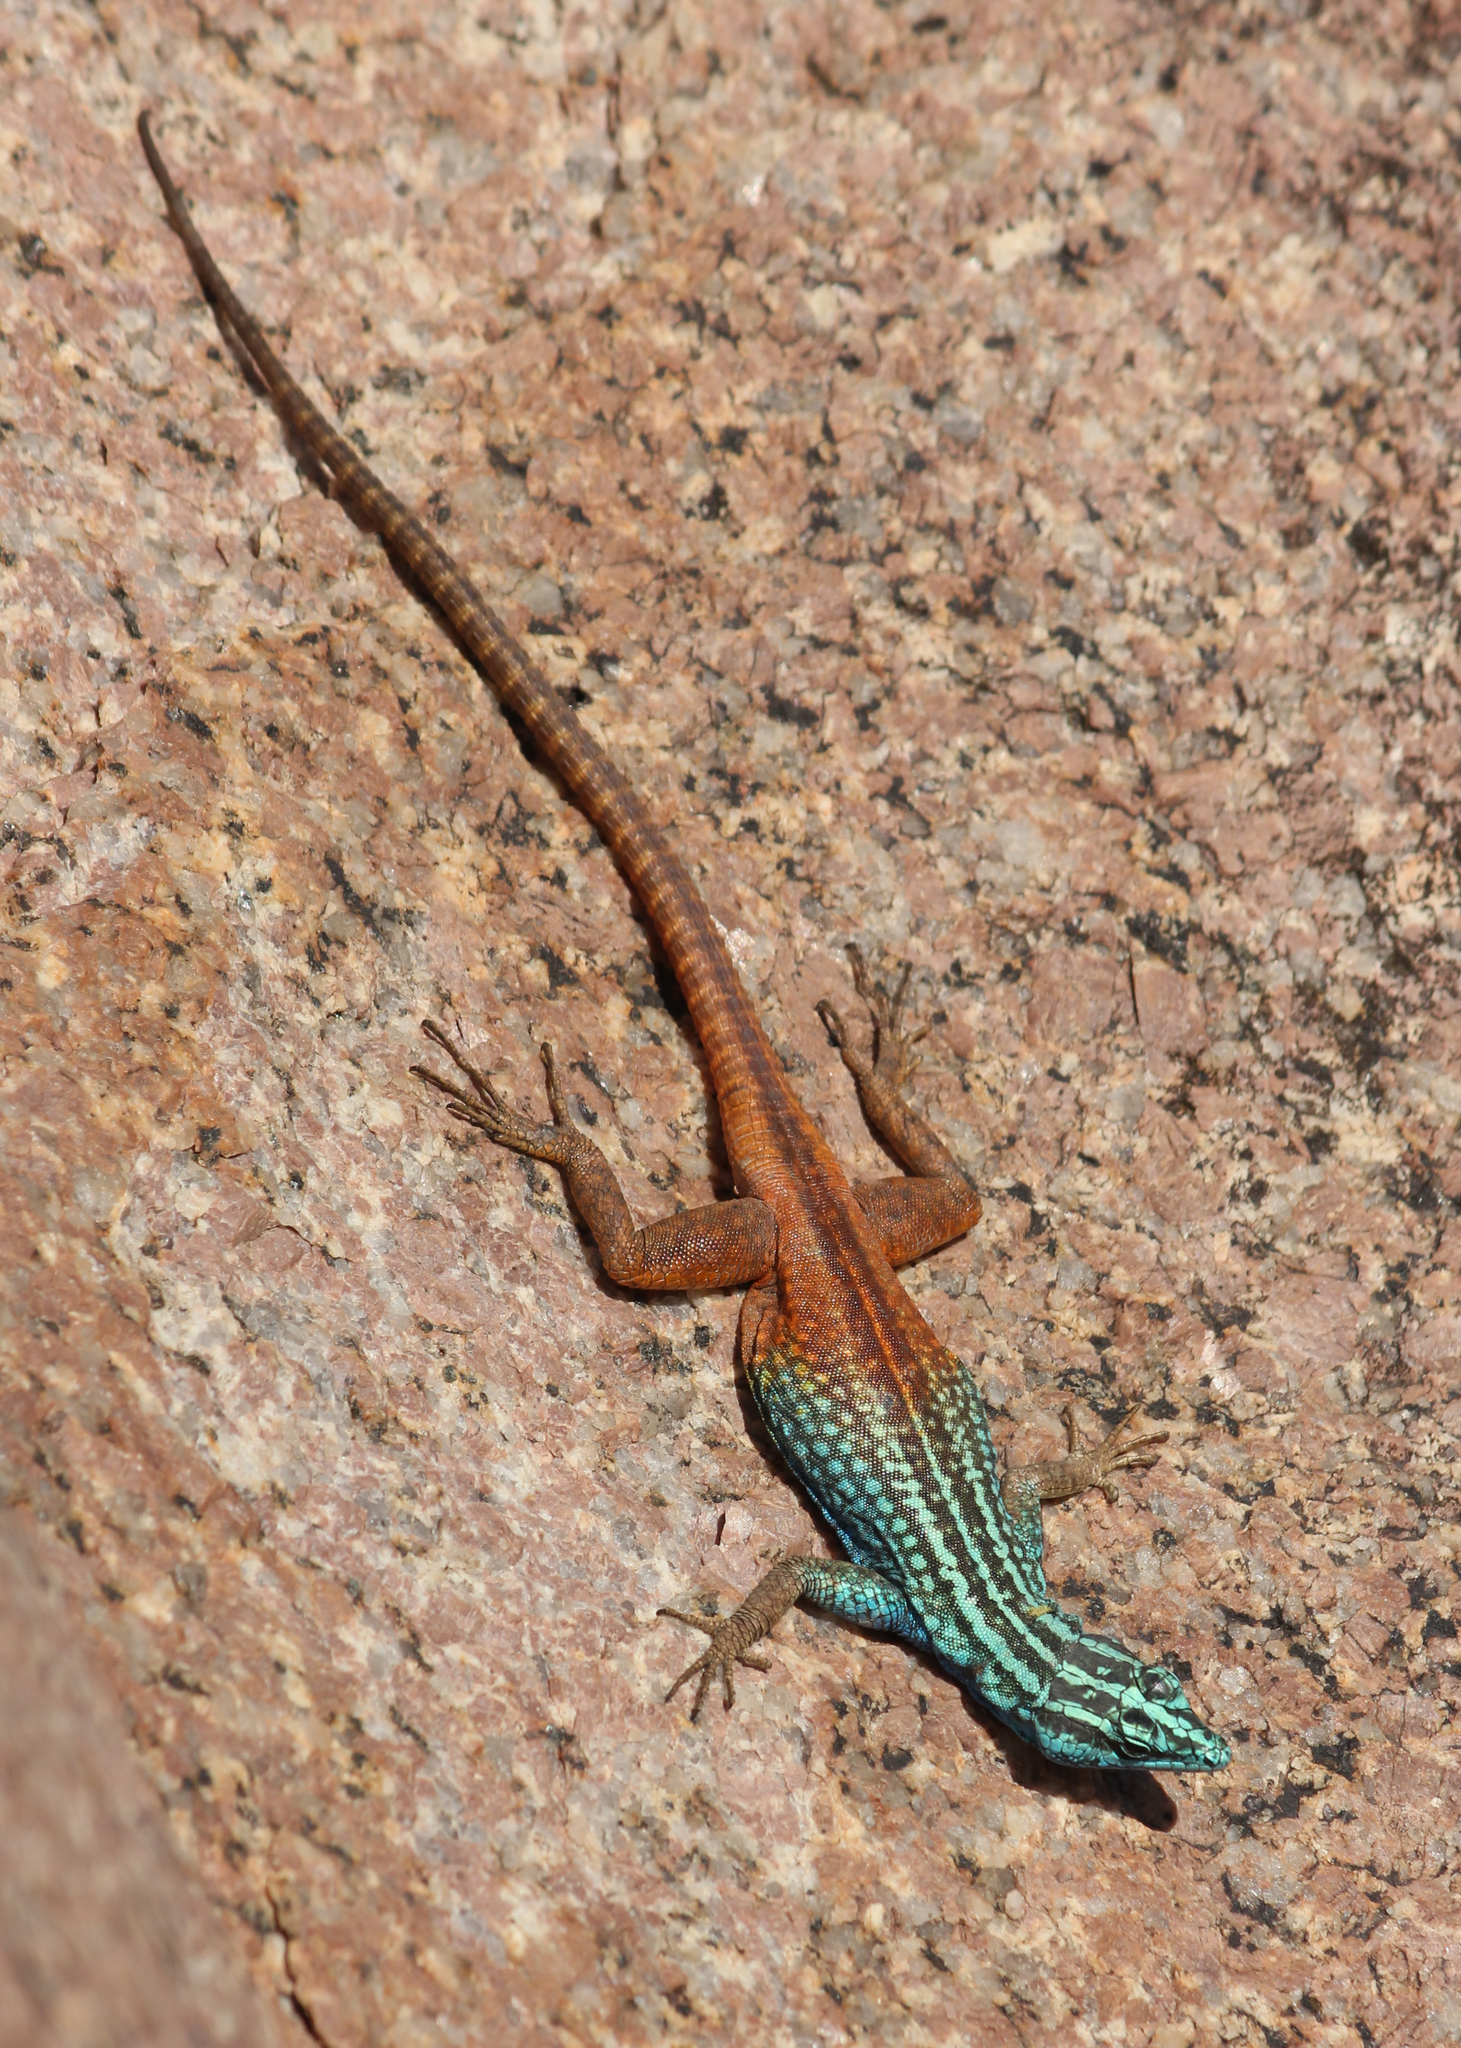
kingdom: Animalia
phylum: Chordata
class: Squamata
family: Cordylidae
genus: Platysaurus
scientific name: Platysaurus attenboroughi
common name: Attenborough’s flat lizard
